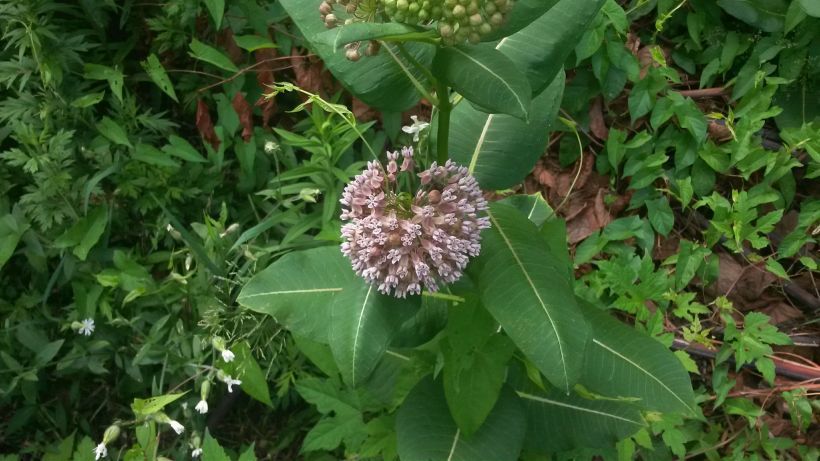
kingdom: Plantae
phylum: Tracheophyta
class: Magnoliopsida
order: Gentianales
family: Apocynaceae
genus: Asclepias
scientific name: Asclepias syriaca
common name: Common milkweed
